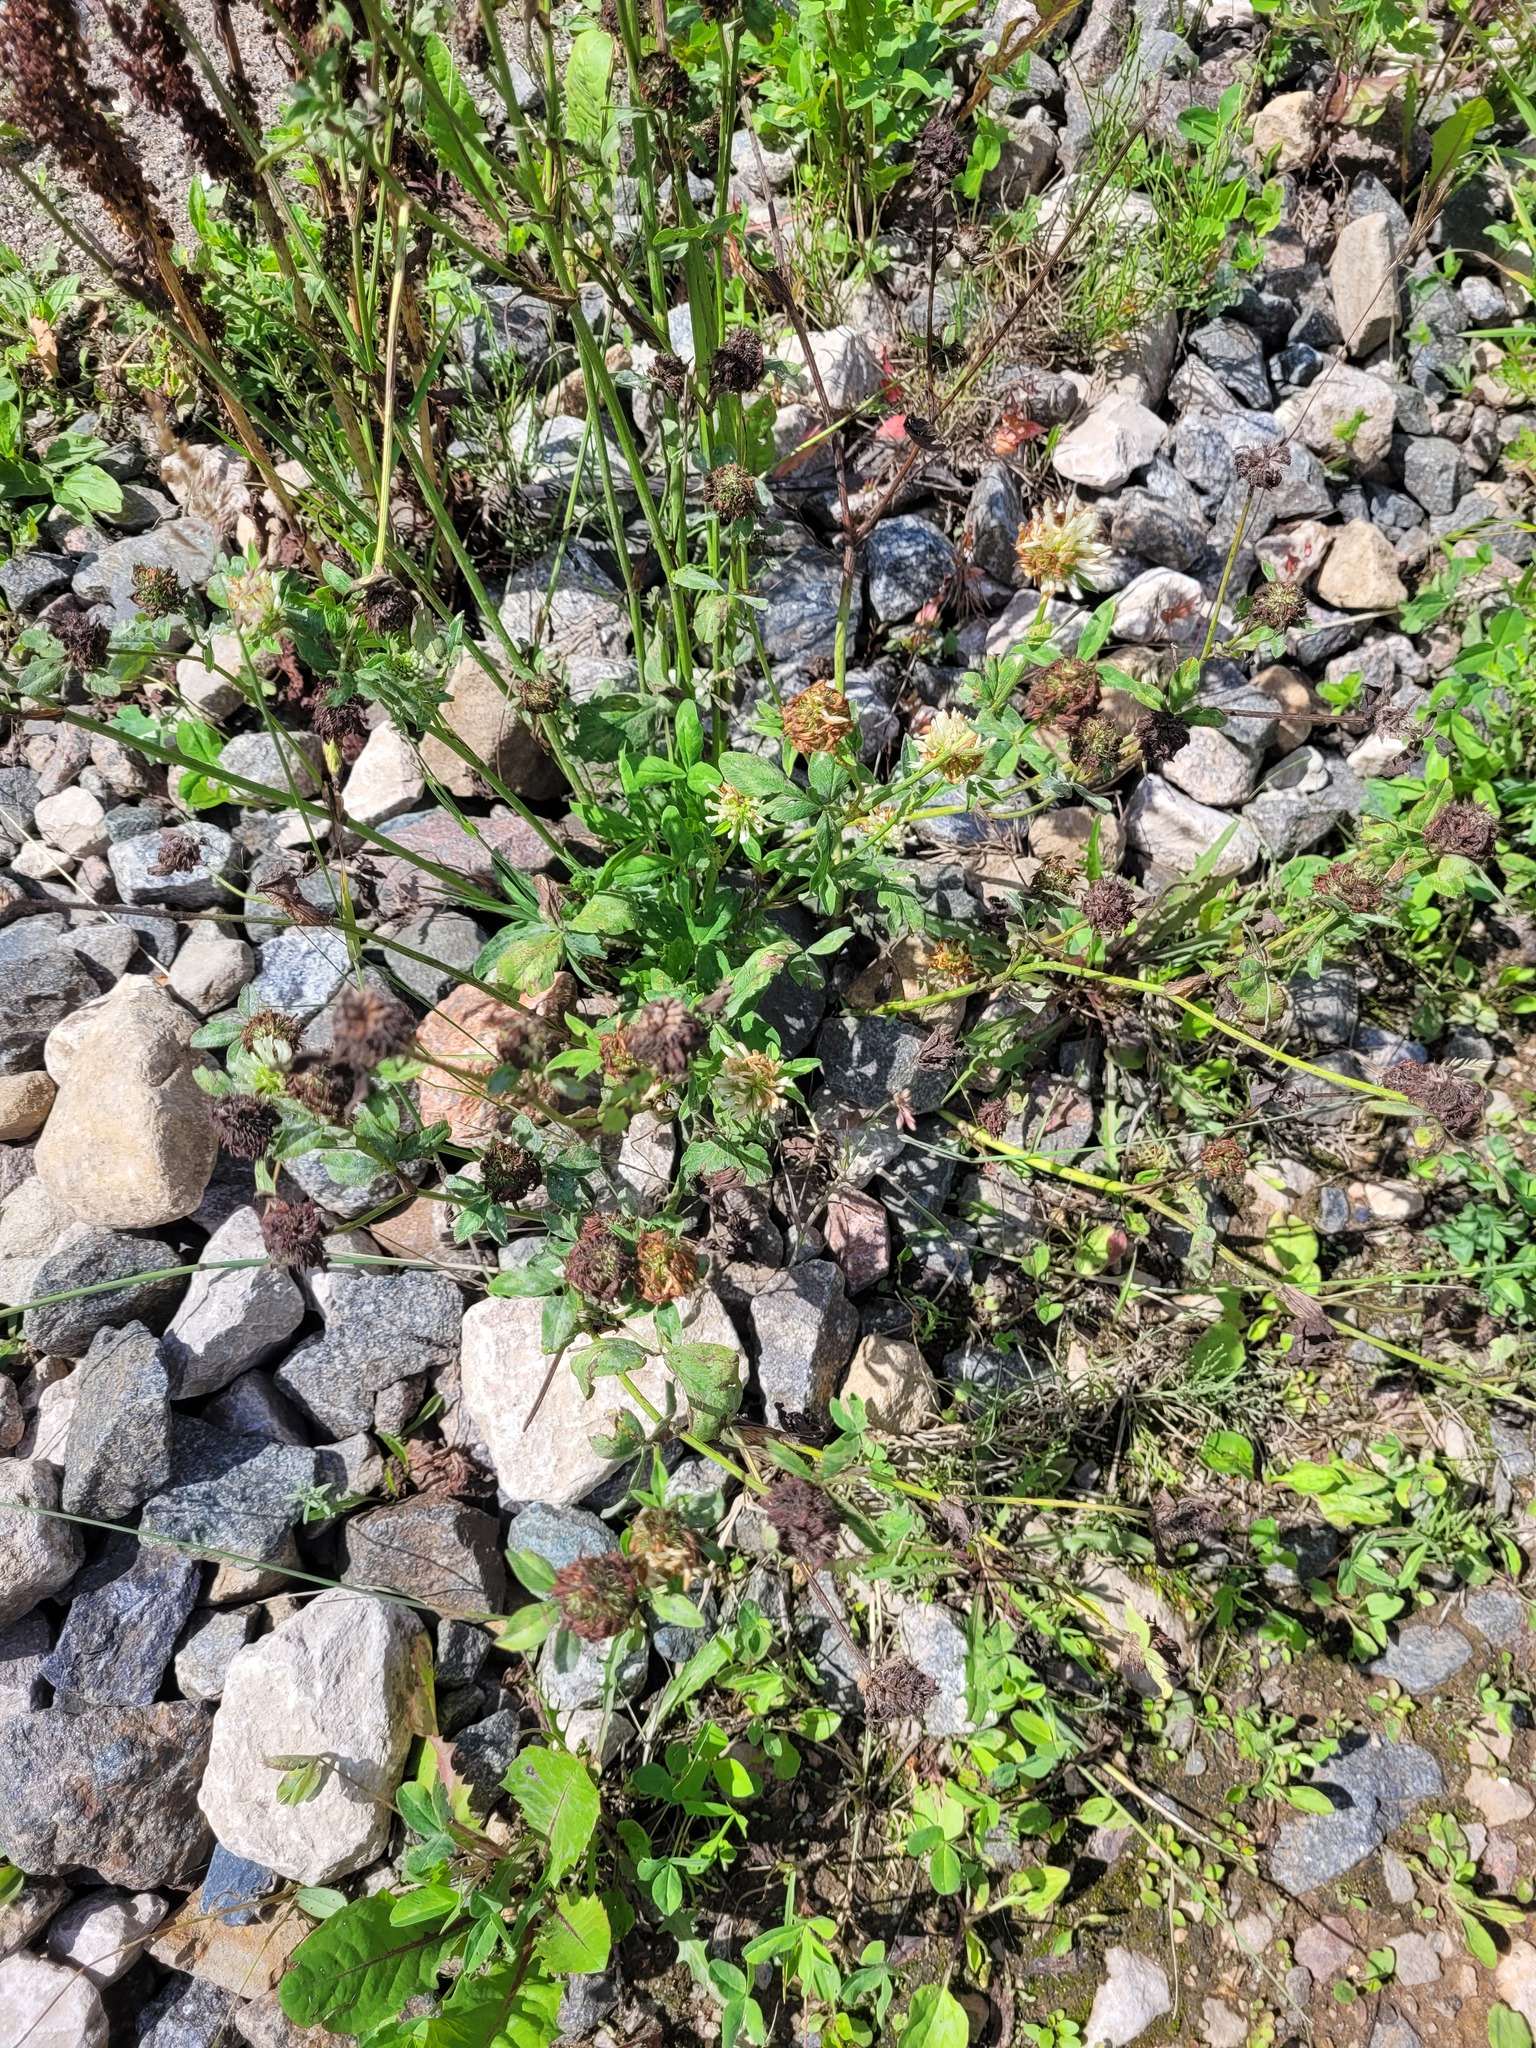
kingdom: Plantae
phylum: Tracheophyta
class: Magnoliopsida
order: Fabales
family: Fabaceae
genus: Trifolium
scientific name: Trifolium pratense
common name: Red clover
